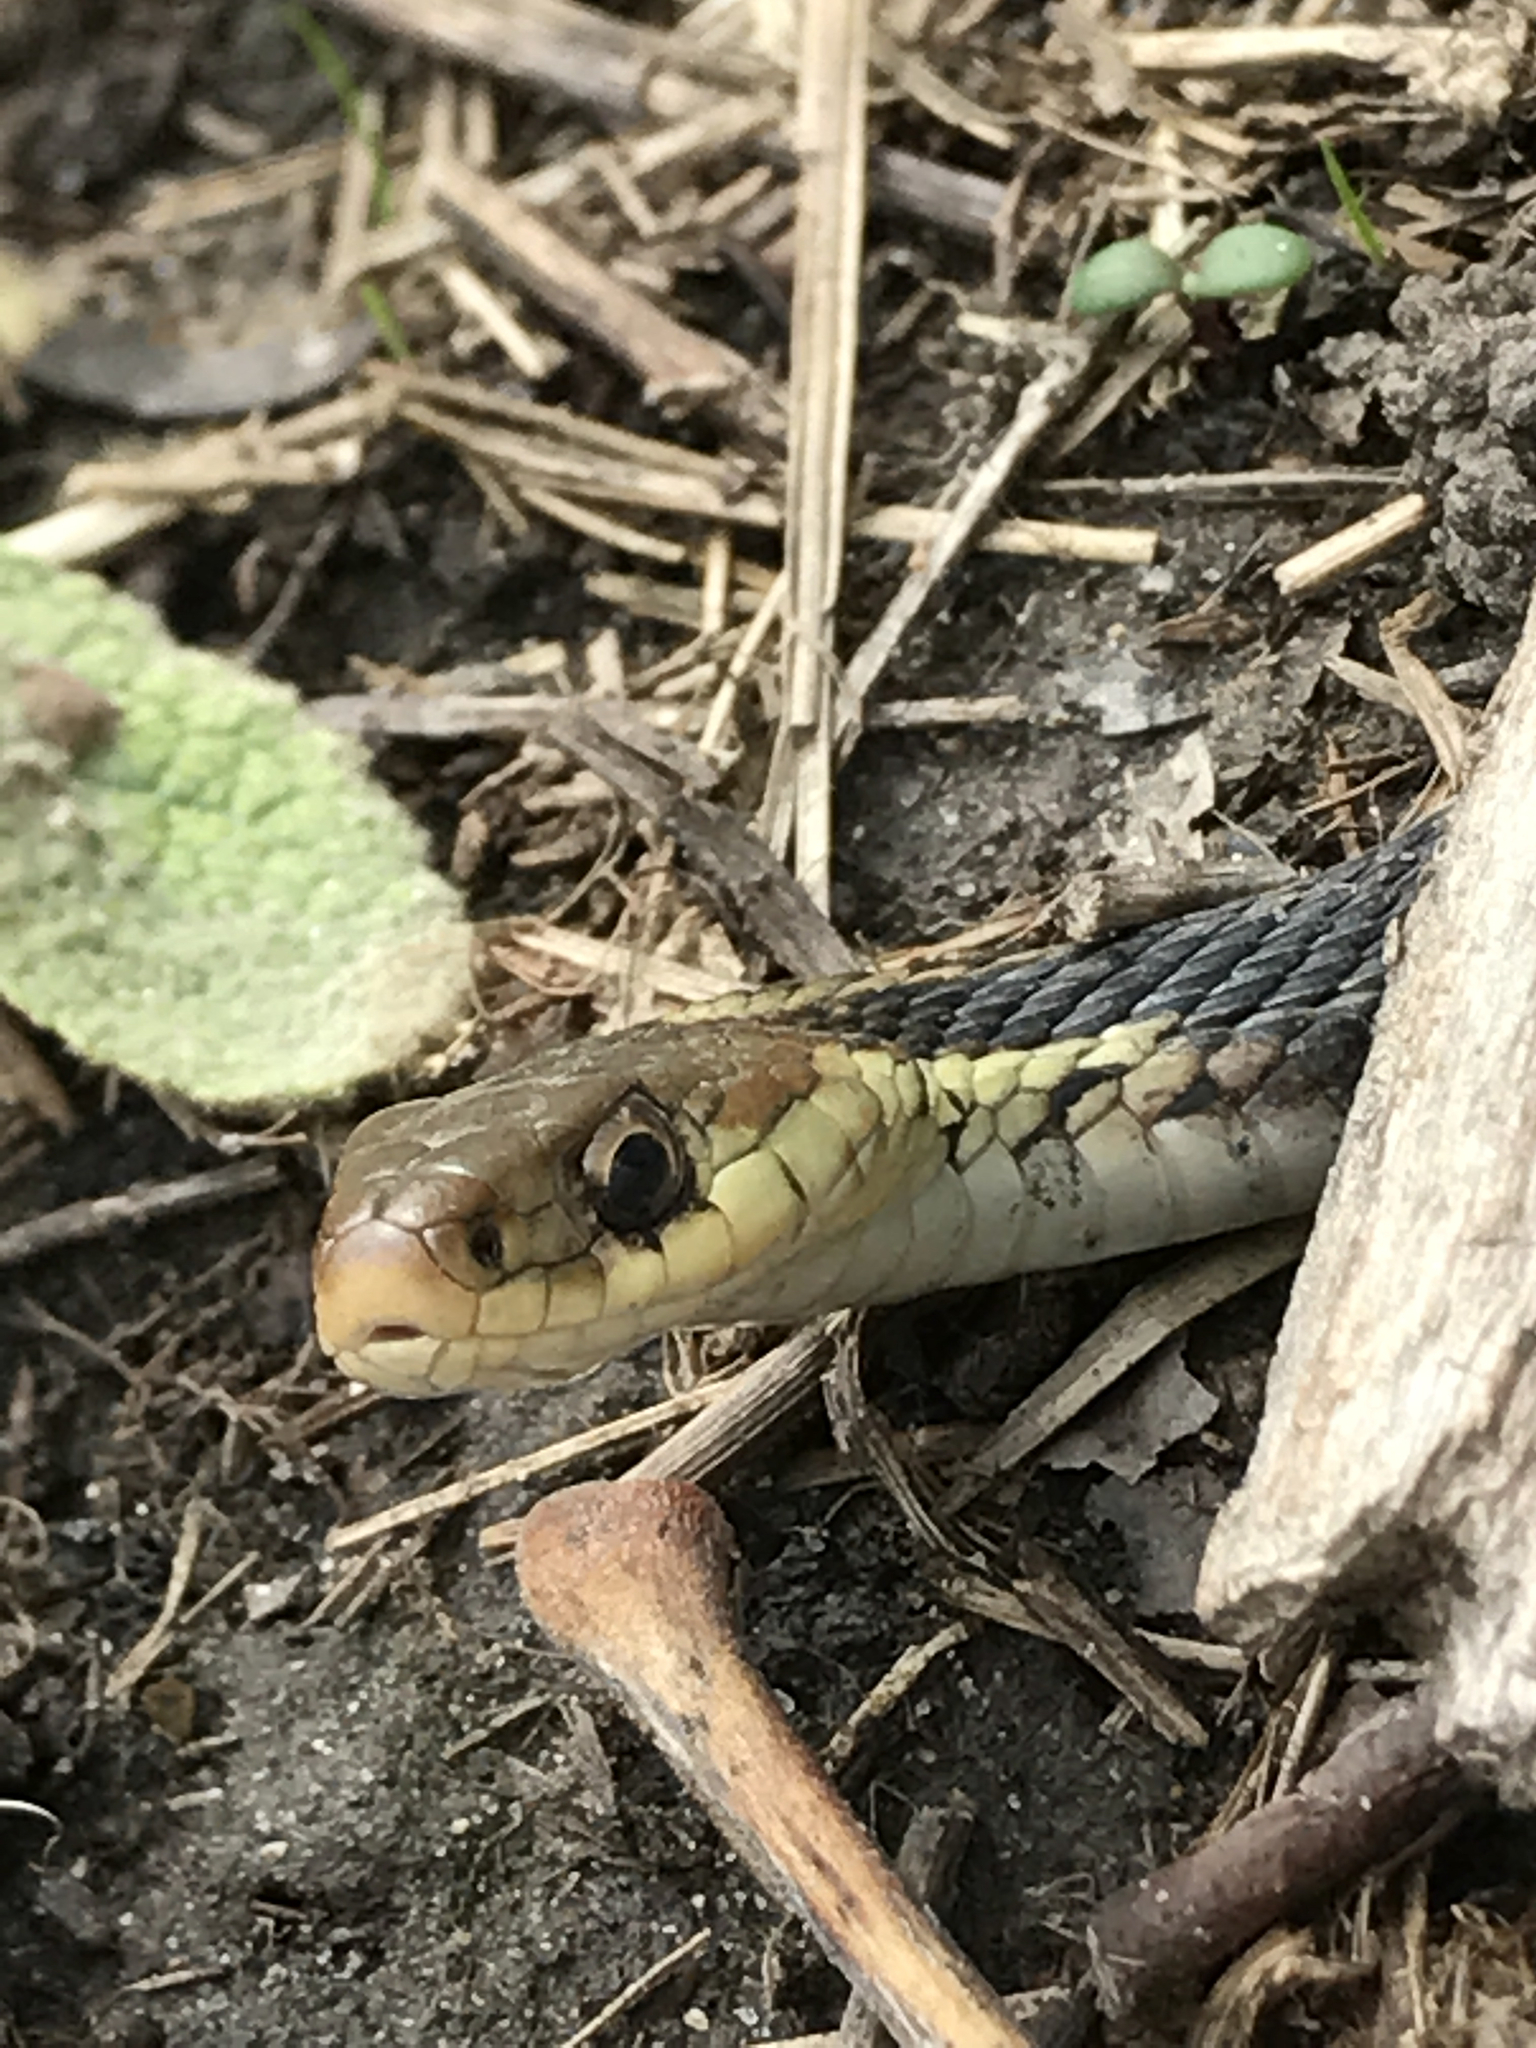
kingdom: Animalia
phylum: Chordata
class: Squamata
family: Colubridae
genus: Thamnophis
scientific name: Thamnophis sirtalis
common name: Common garter snake
